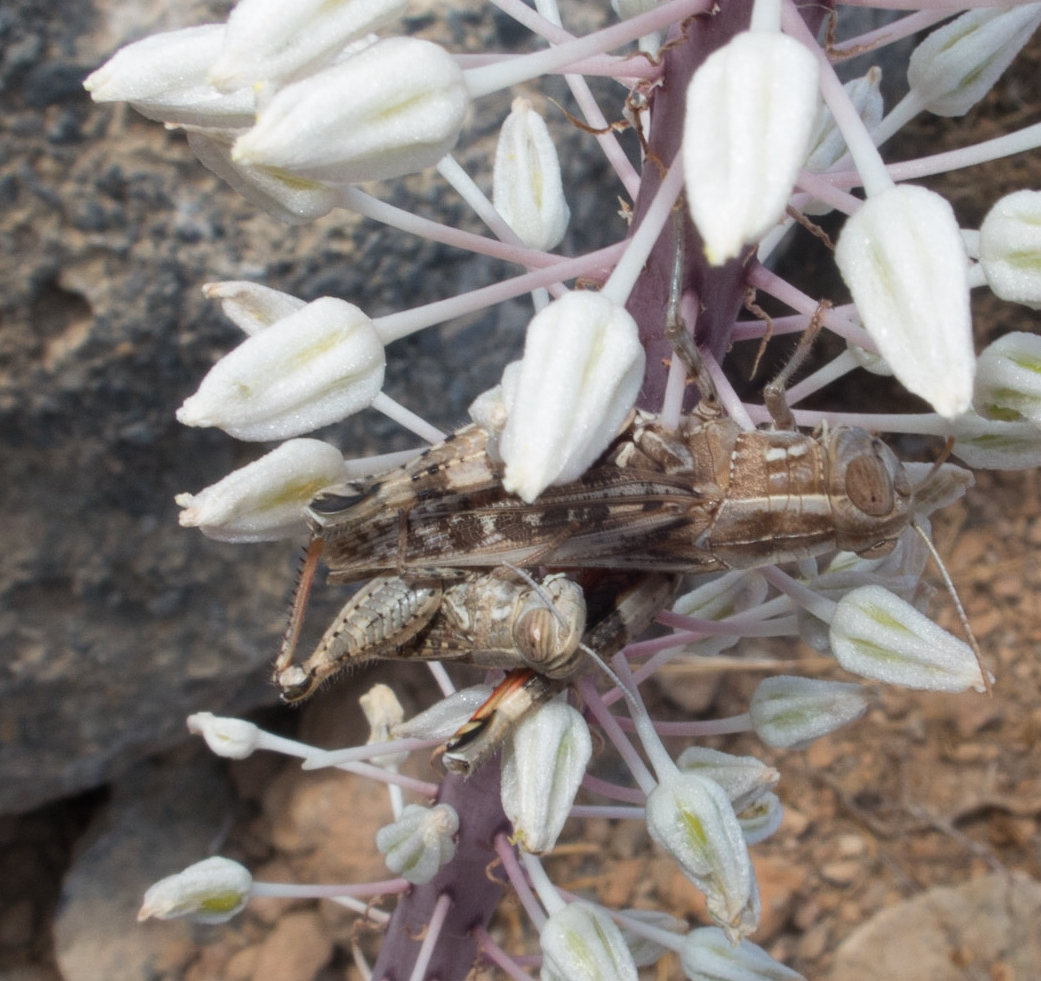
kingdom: Animalia
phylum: Arthropoda
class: Insecta
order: Orthoptera
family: Acrididae
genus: Calliptamus
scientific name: Calliptamus barbarus
